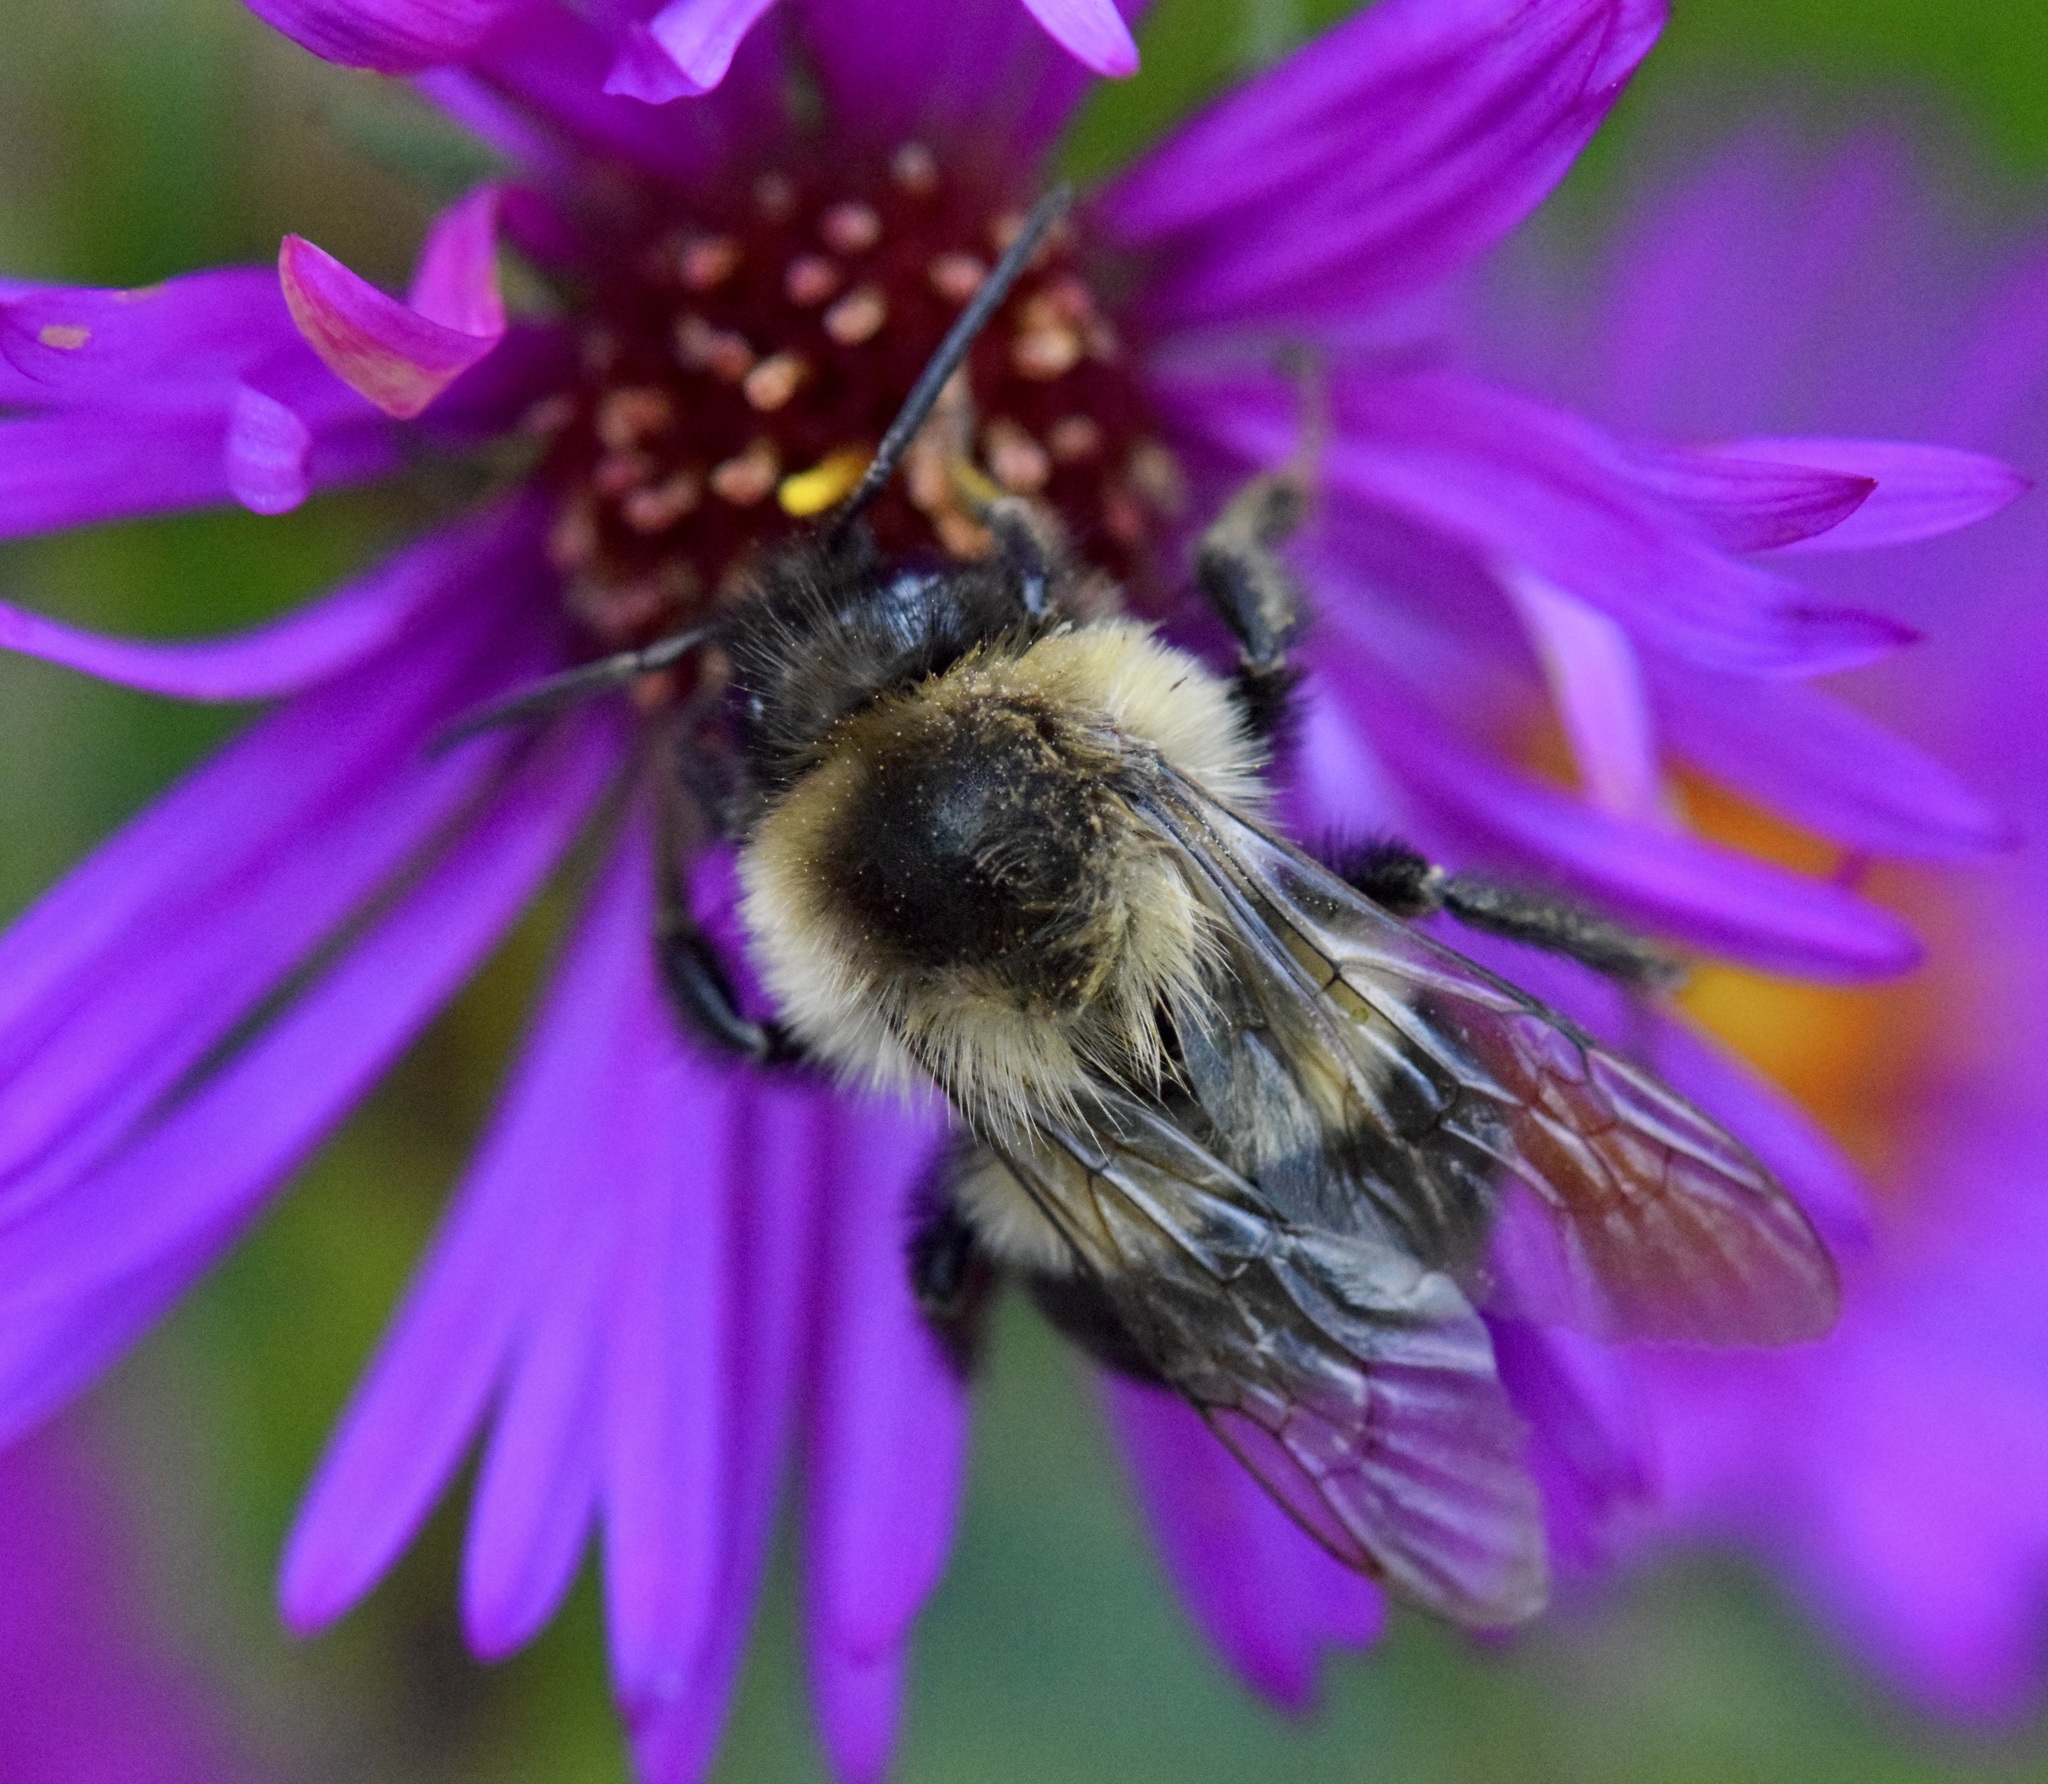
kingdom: Animalia
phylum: Arthropoda
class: Insecta
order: Hymenoptera
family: Apidae
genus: Bombus
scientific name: Bombus impatiens
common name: Common eastern bumble bee
